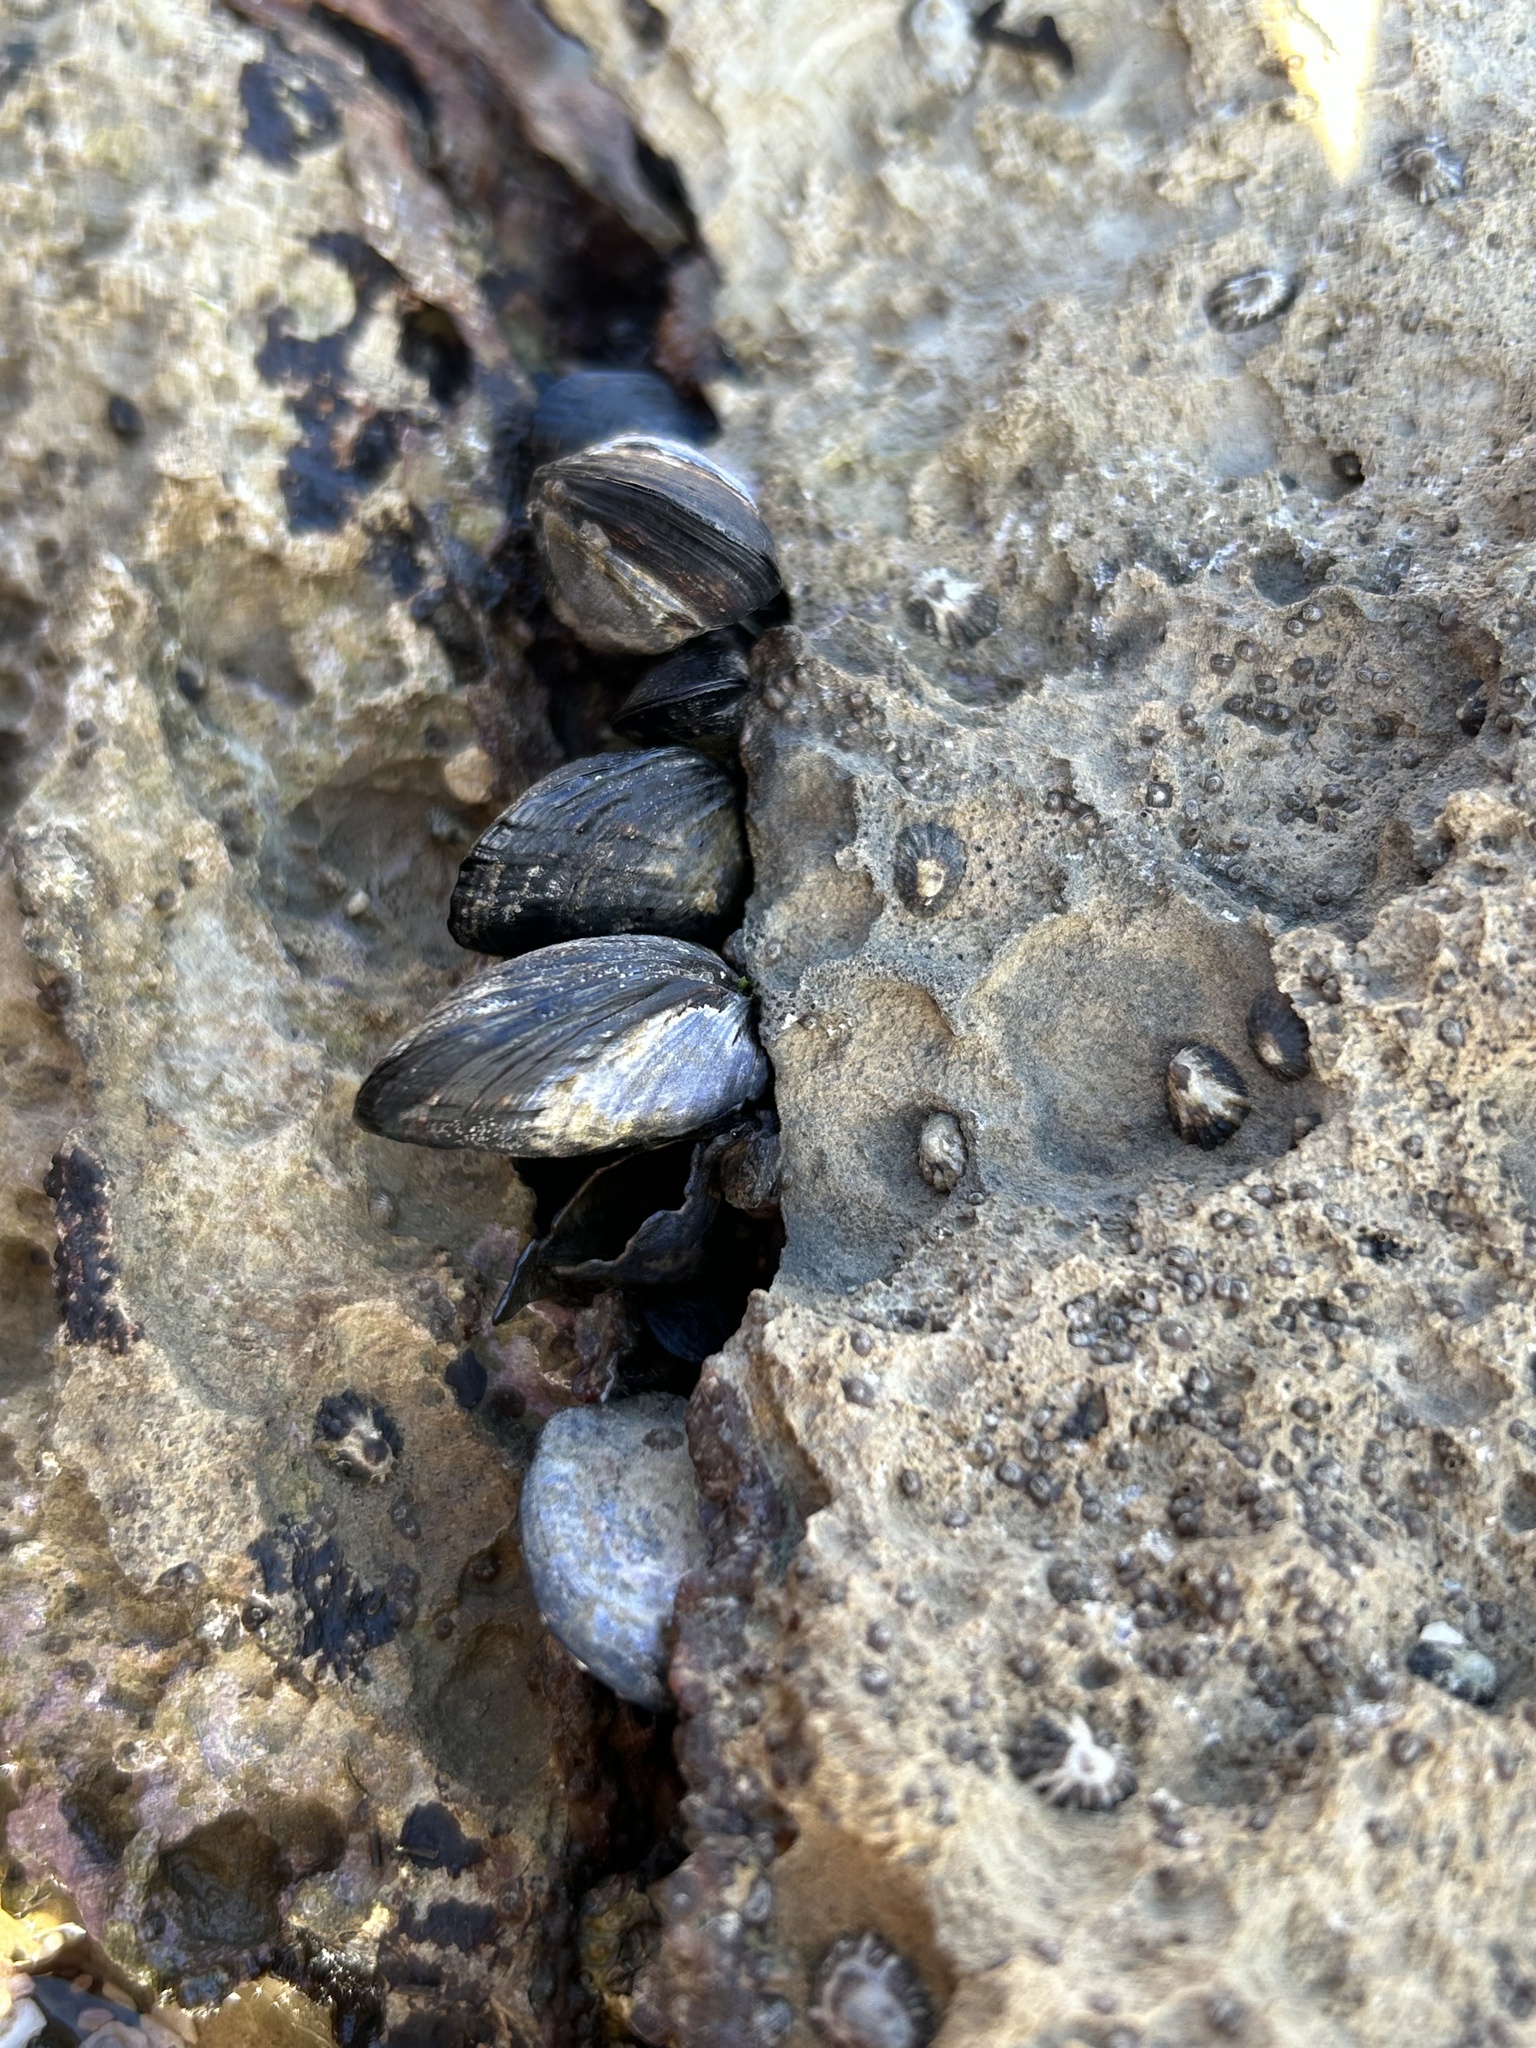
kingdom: Animalia
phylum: Mollusca
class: Bivalvia
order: Mytilida
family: Mytilidae
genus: Mytilus
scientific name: Mytilus californianus
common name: California mussel
